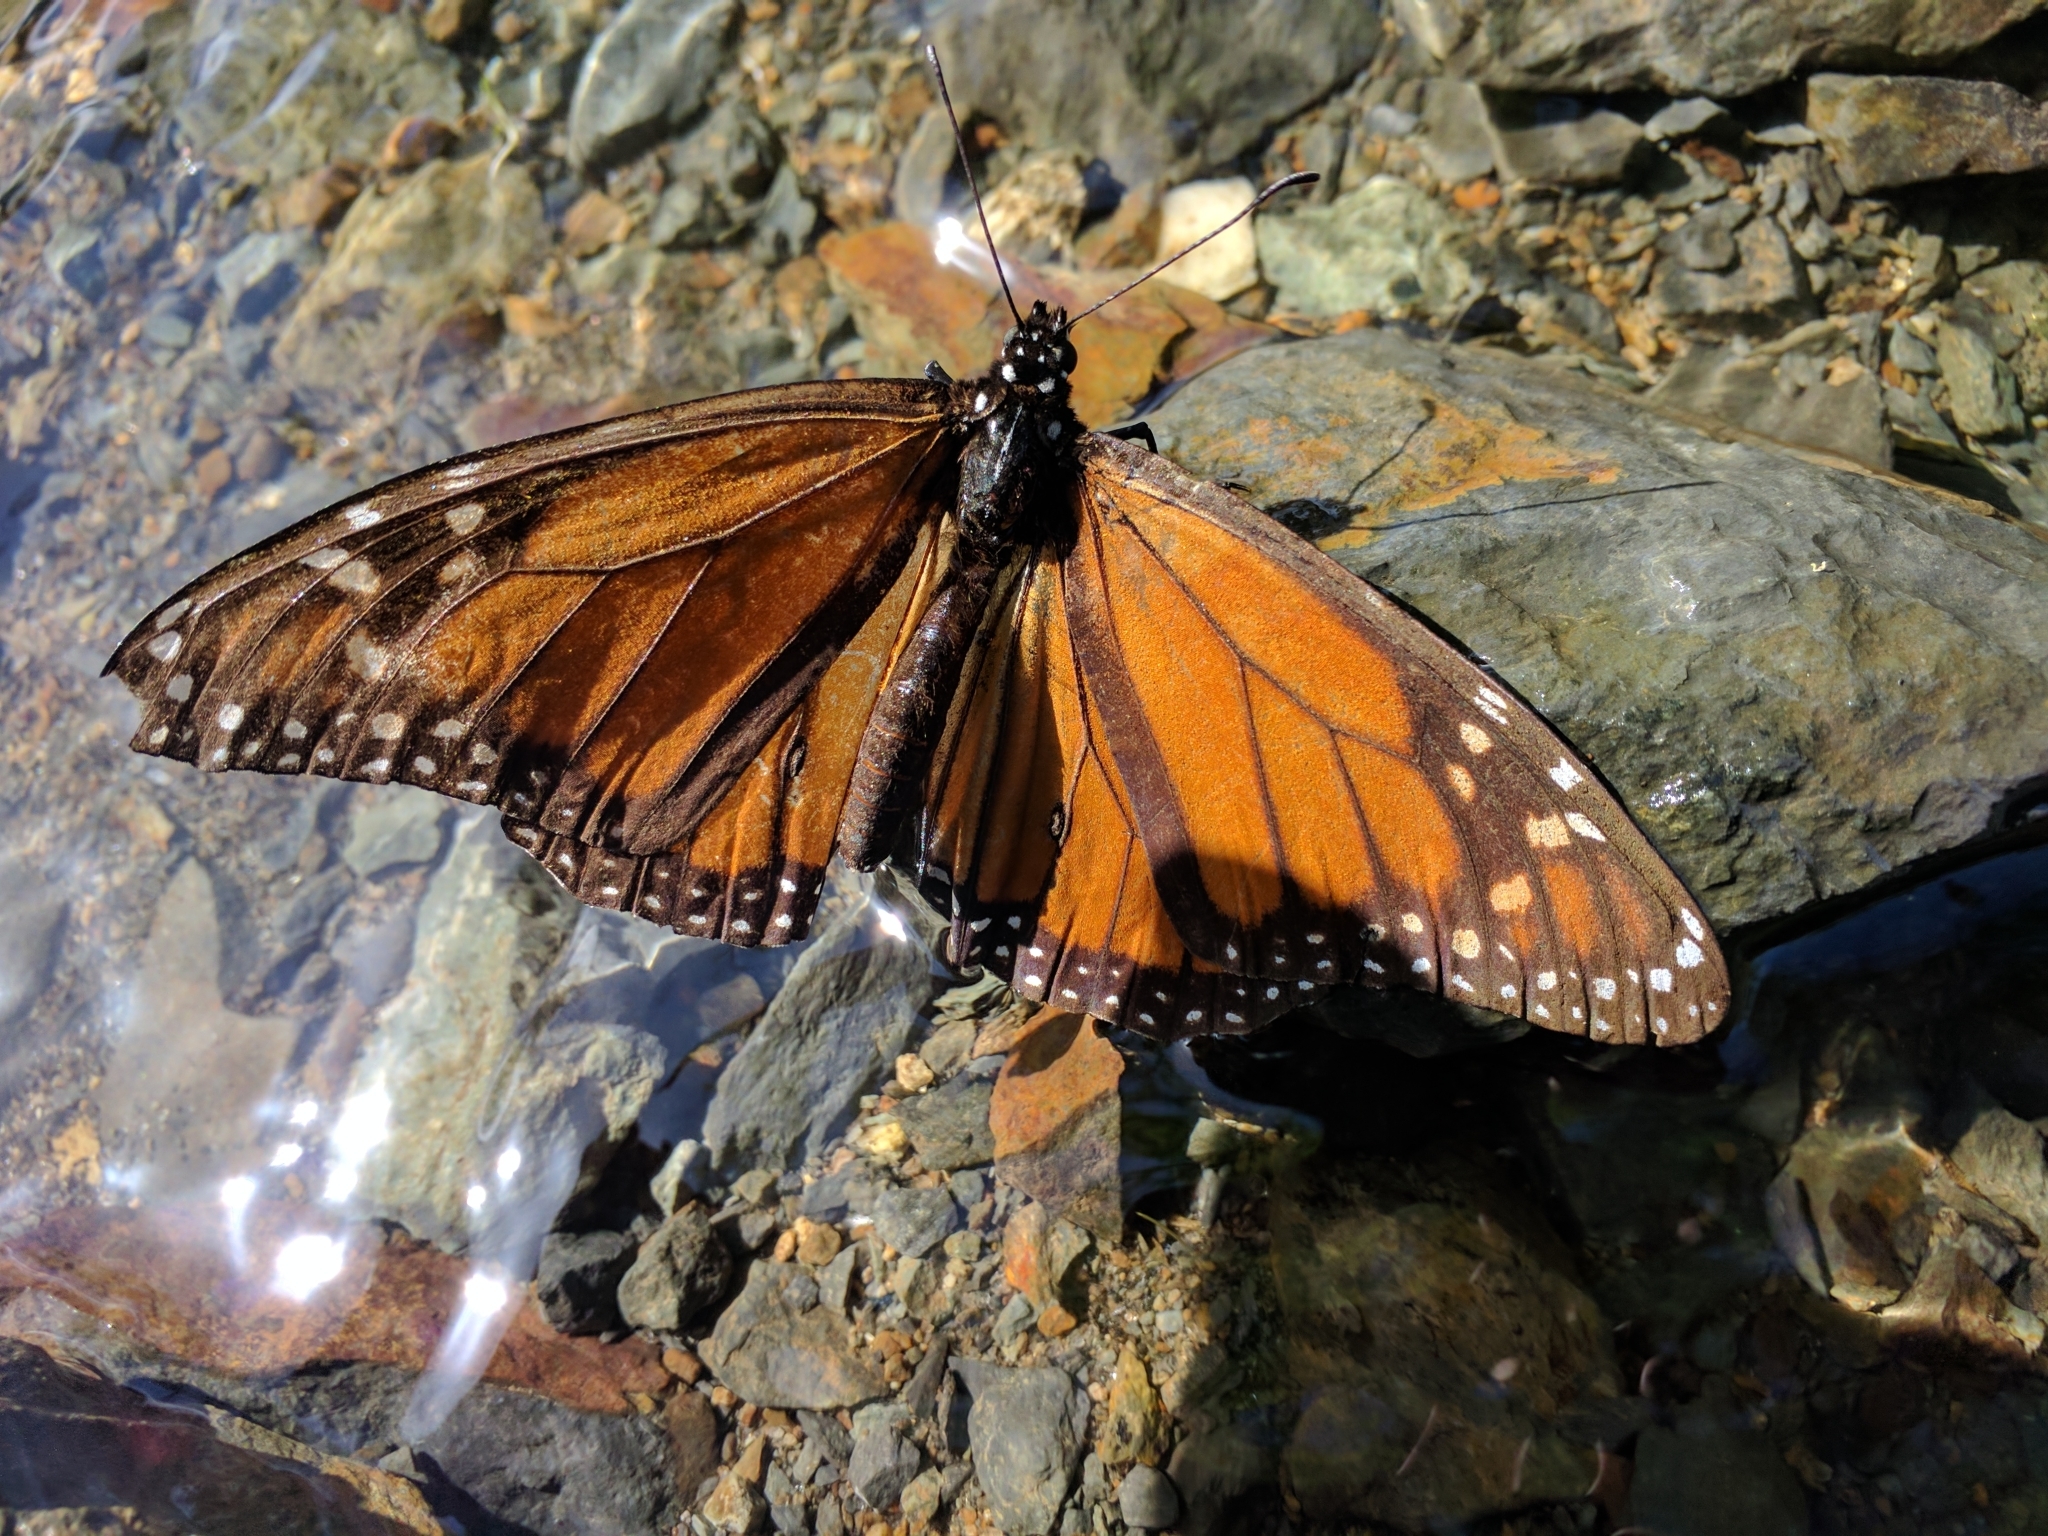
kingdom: Animalia
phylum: Arthropoda
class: Insecta
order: Lepidoptera
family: Nymphalidae
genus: Danaus
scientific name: Danaus plexippus
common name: Monarch
